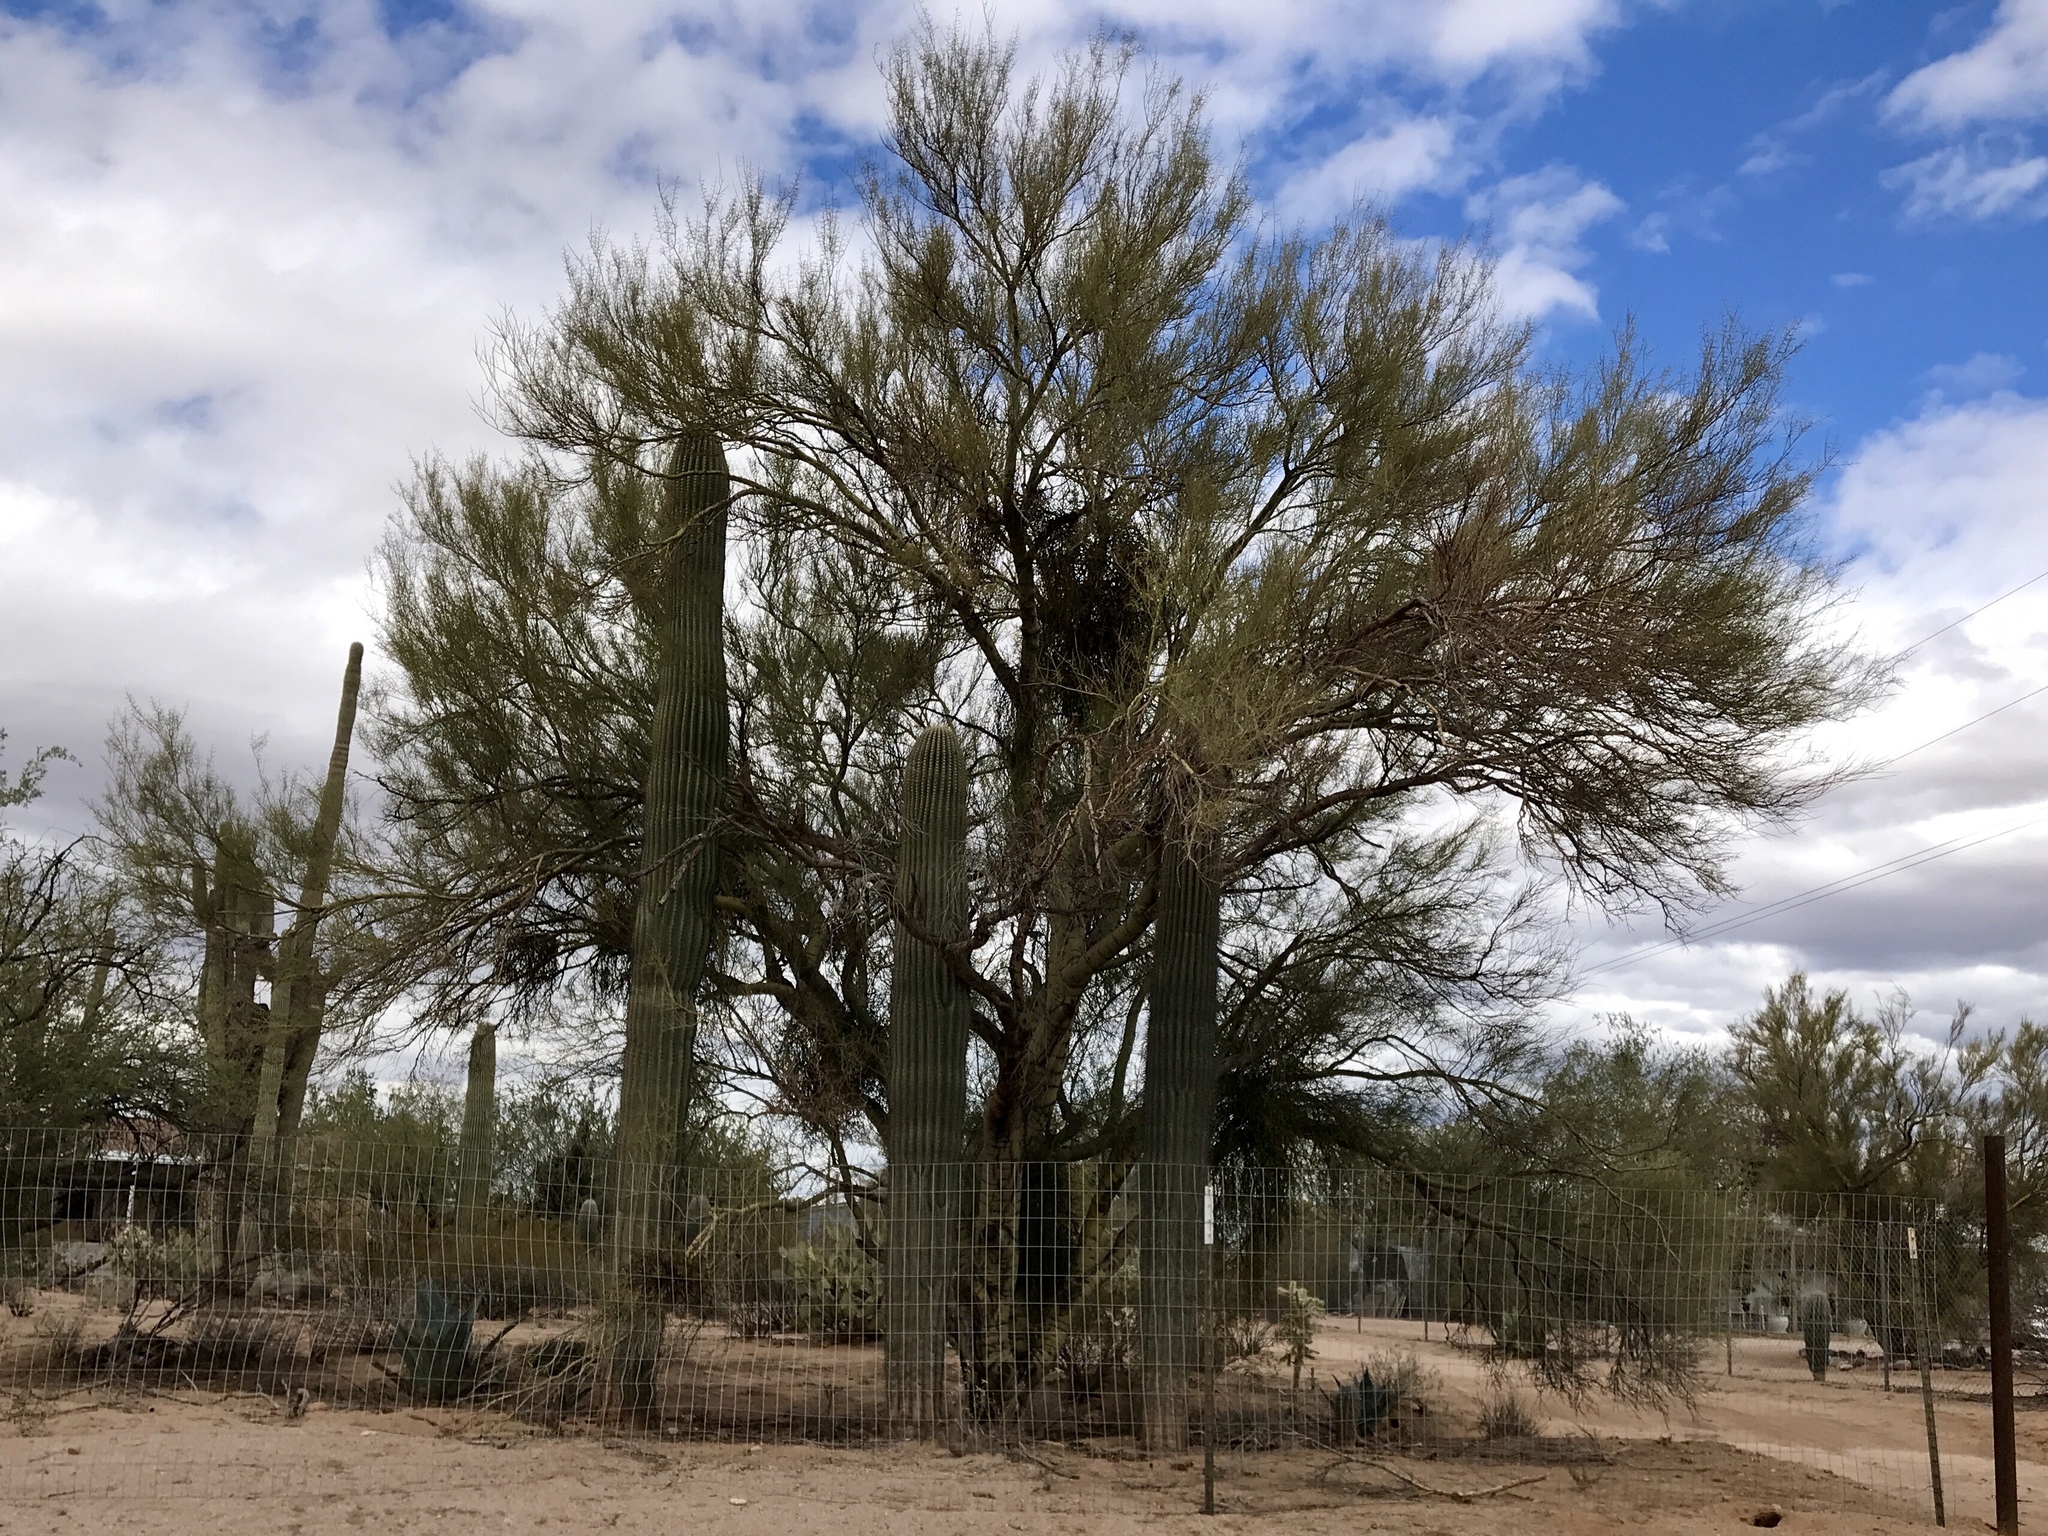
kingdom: Plantae
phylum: Tracheophyta
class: Magnoliopsida
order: Fabales
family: Fabaceae
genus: Parkinsonia
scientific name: Parkinsonia microphylla
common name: Yellow paloverde
